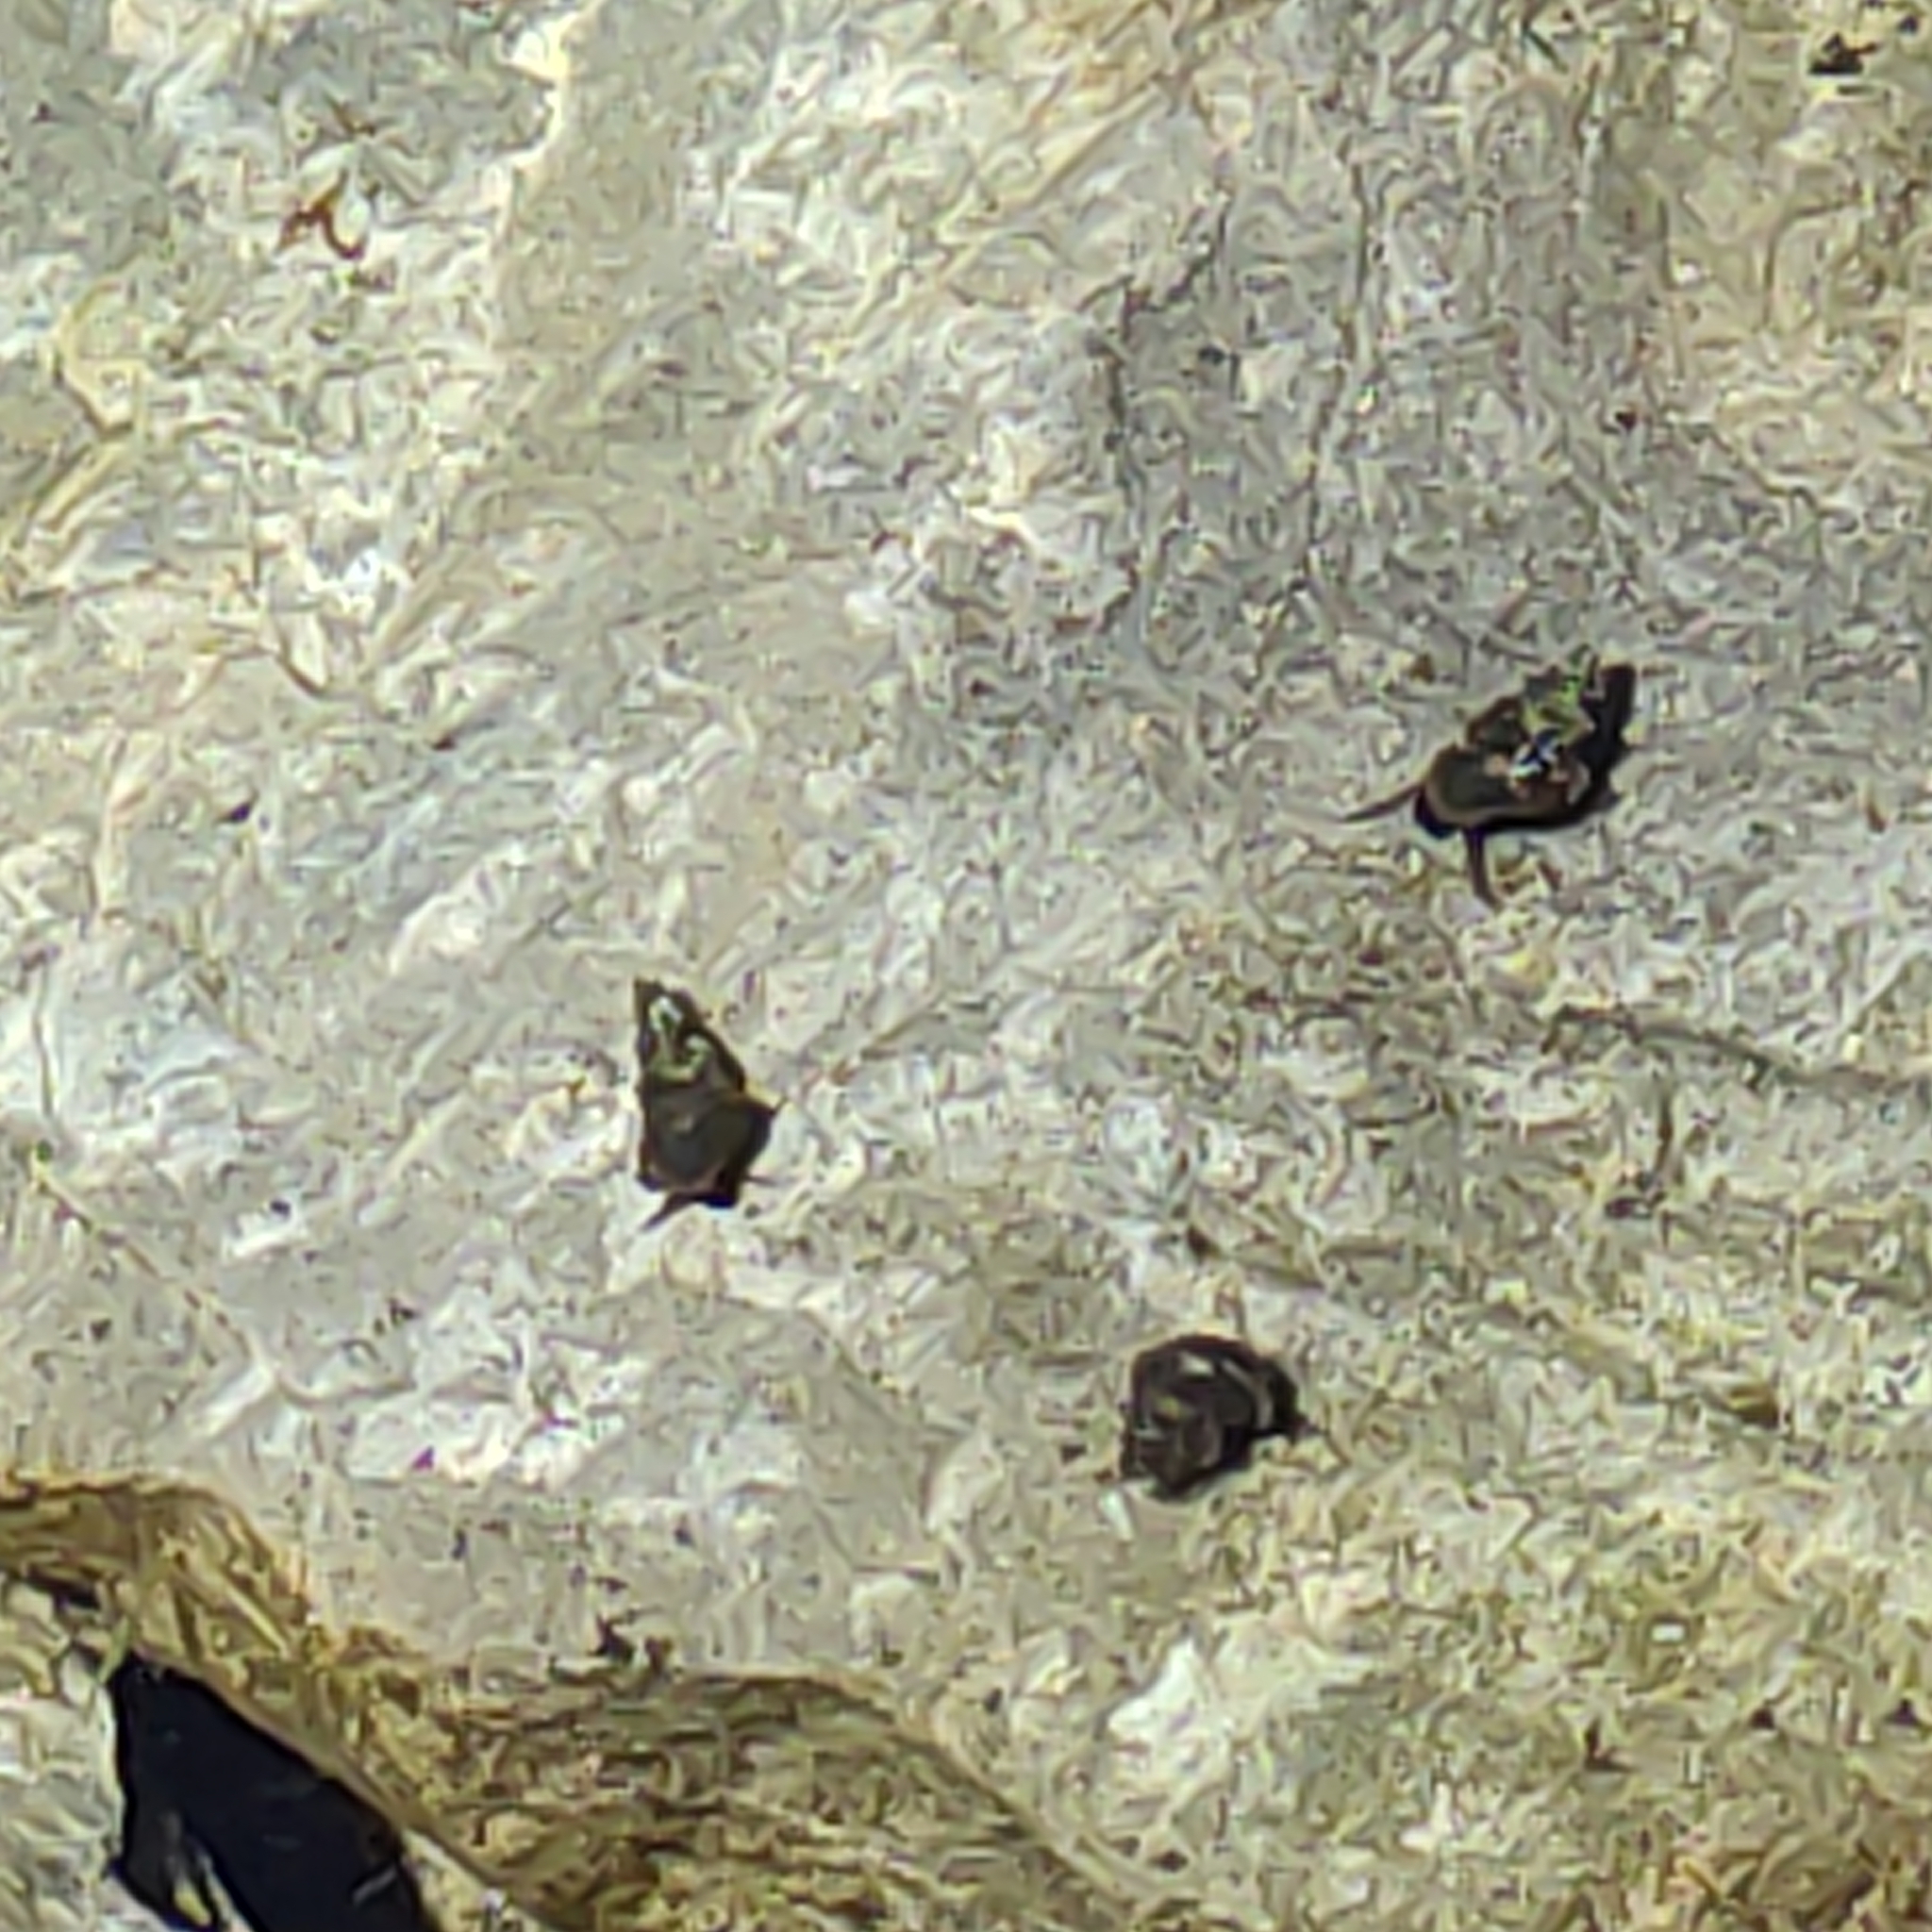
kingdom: Animalia
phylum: Mollusca
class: Gastropoda
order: Littorinimorpha
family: Tateidae
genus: Potamopyrgus
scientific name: Potamopyrgus antipodarum
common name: Jenkins' spire snail
